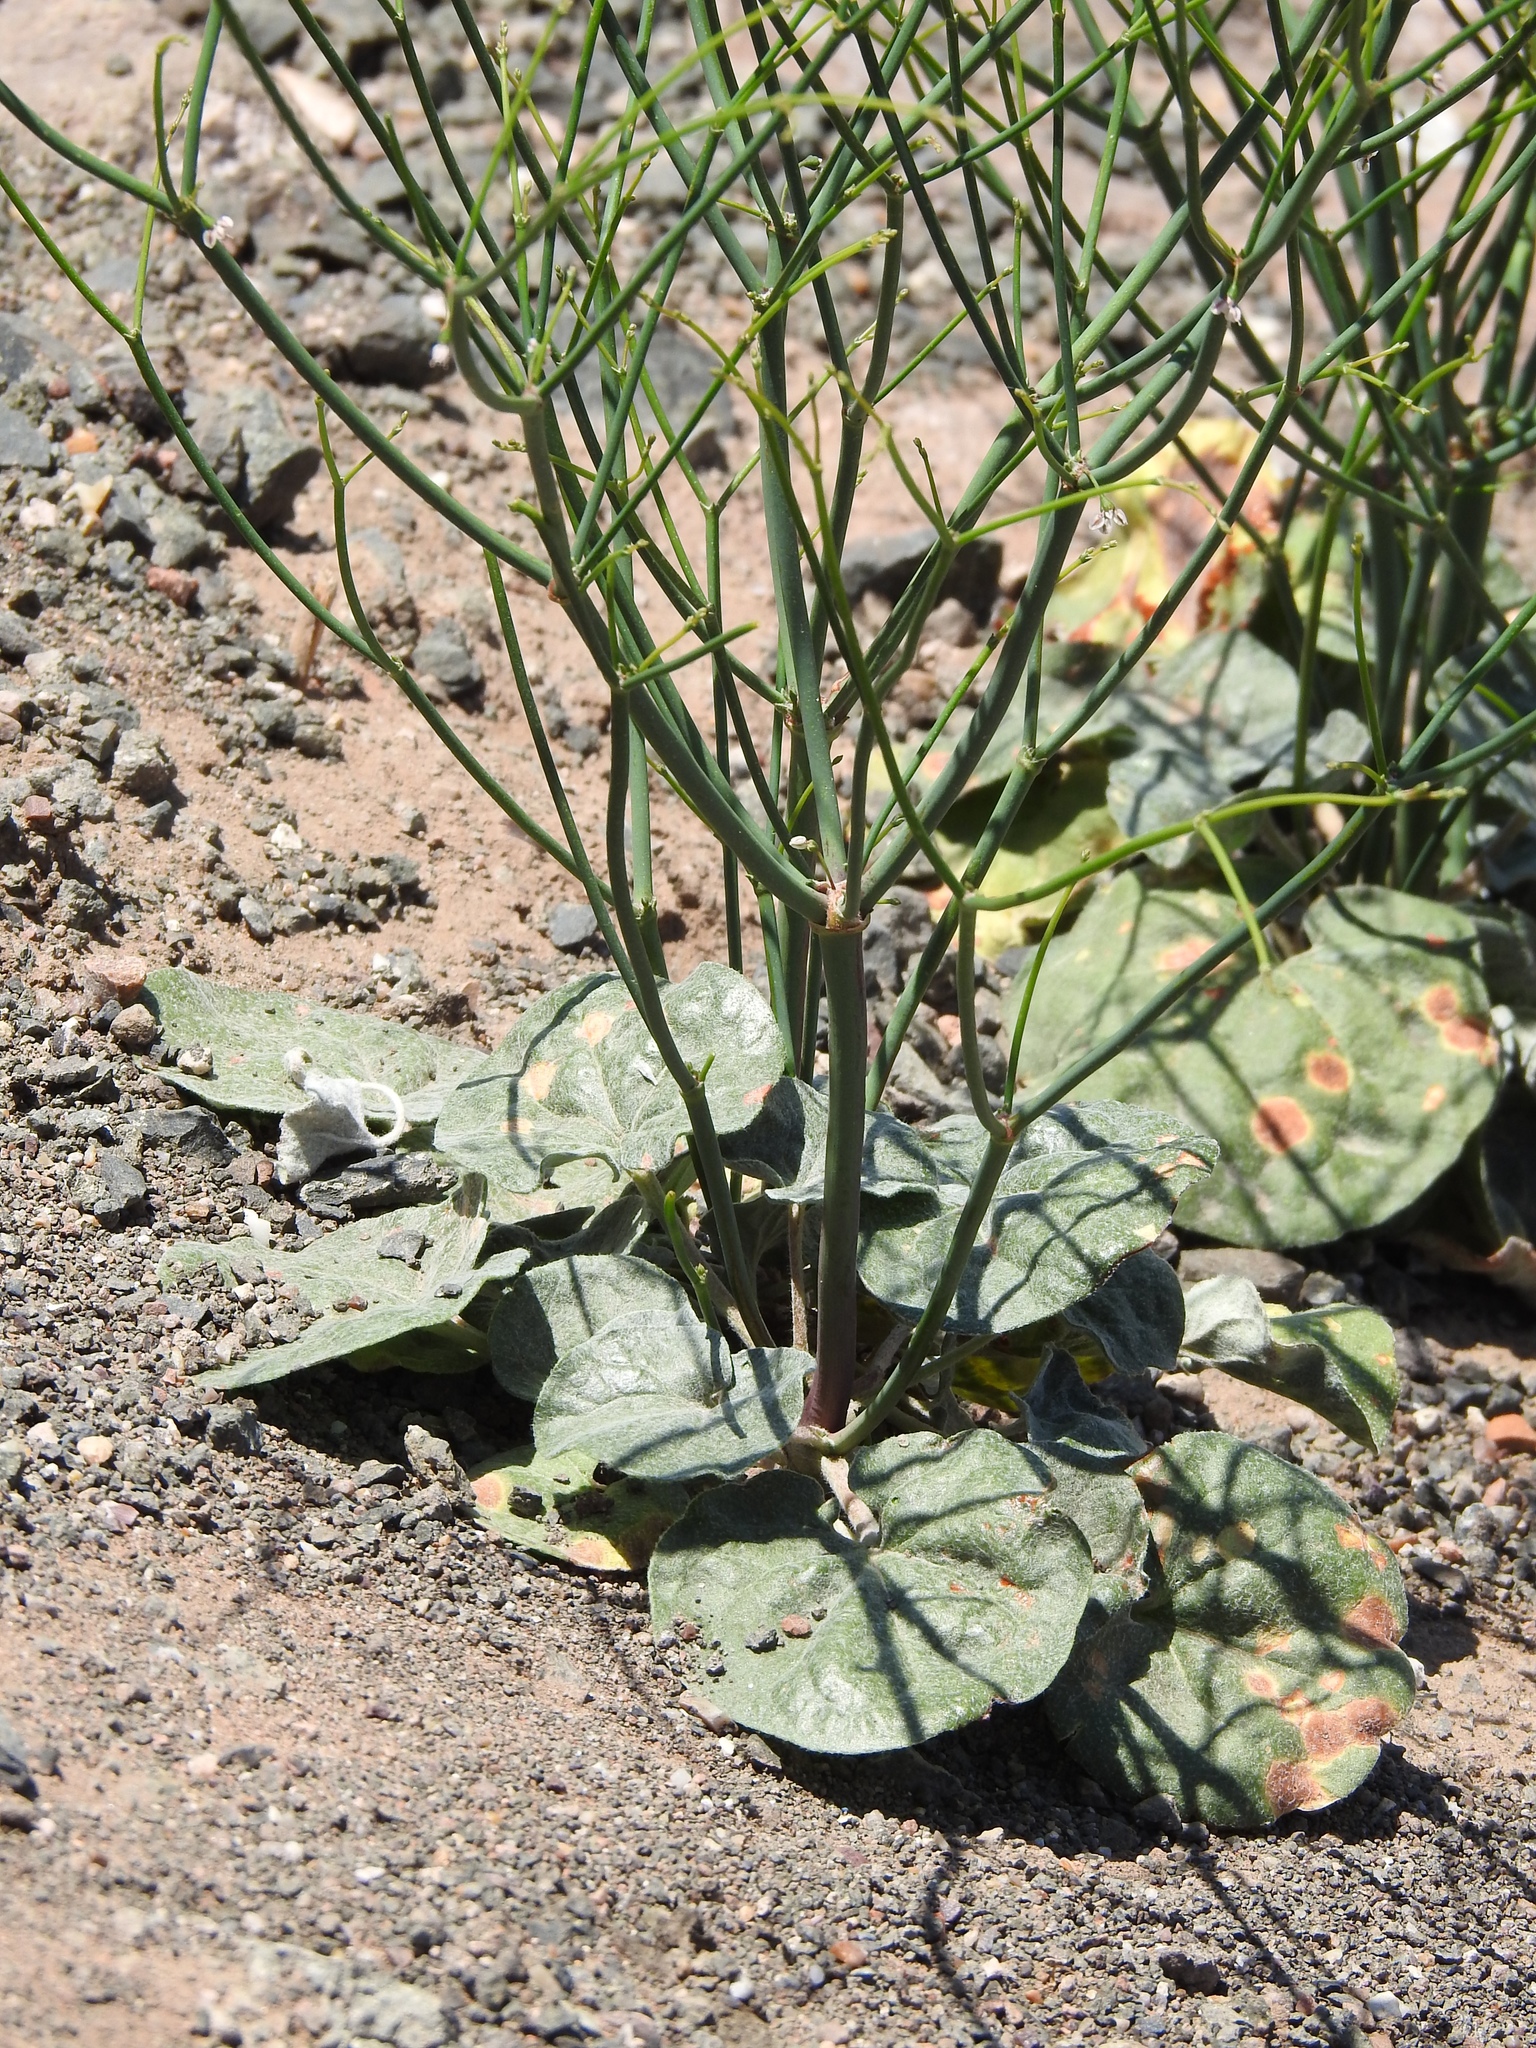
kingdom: Plantae
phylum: Tracheophyta
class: Magnoliopsida
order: Caryophyllales
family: Polygonaceae
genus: Eriogonum
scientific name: Eriogonum deflexum
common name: Skeleton-weed
